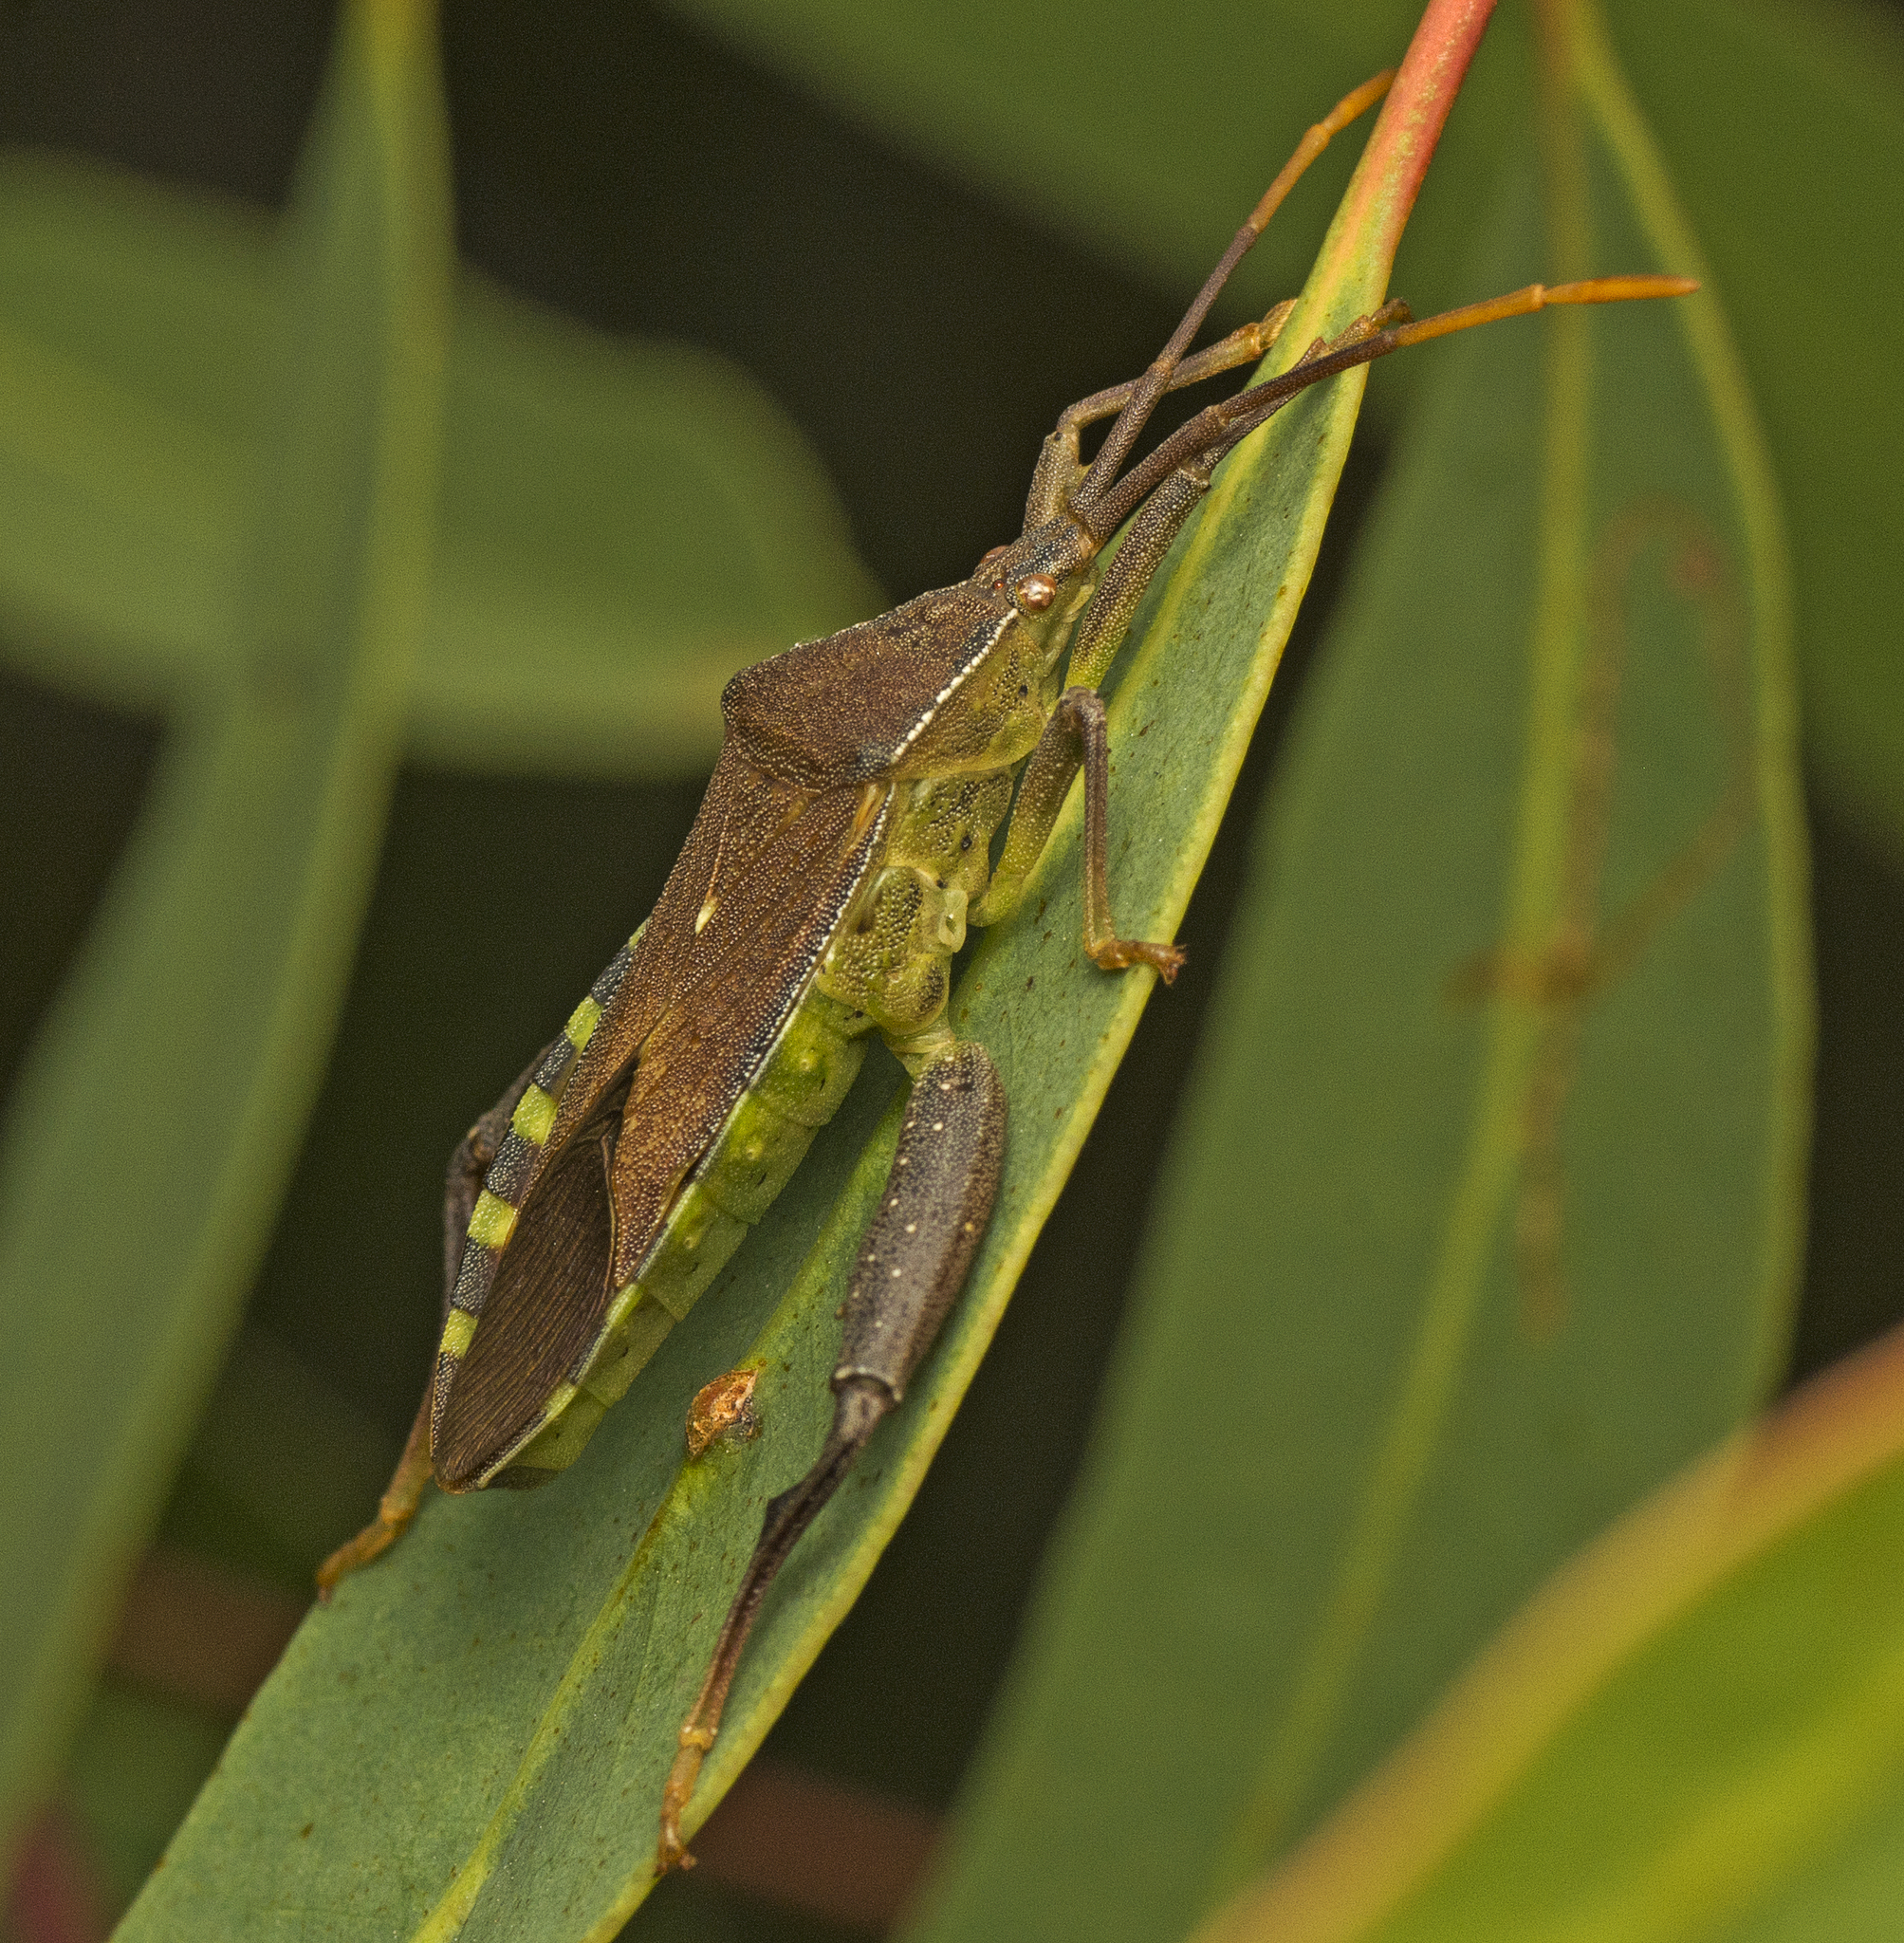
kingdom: Animalia
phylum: Arthropoda
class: Insecta
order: Hemiptera
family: Coreidae
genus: Amorbus
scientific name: Amorbus alternatus
